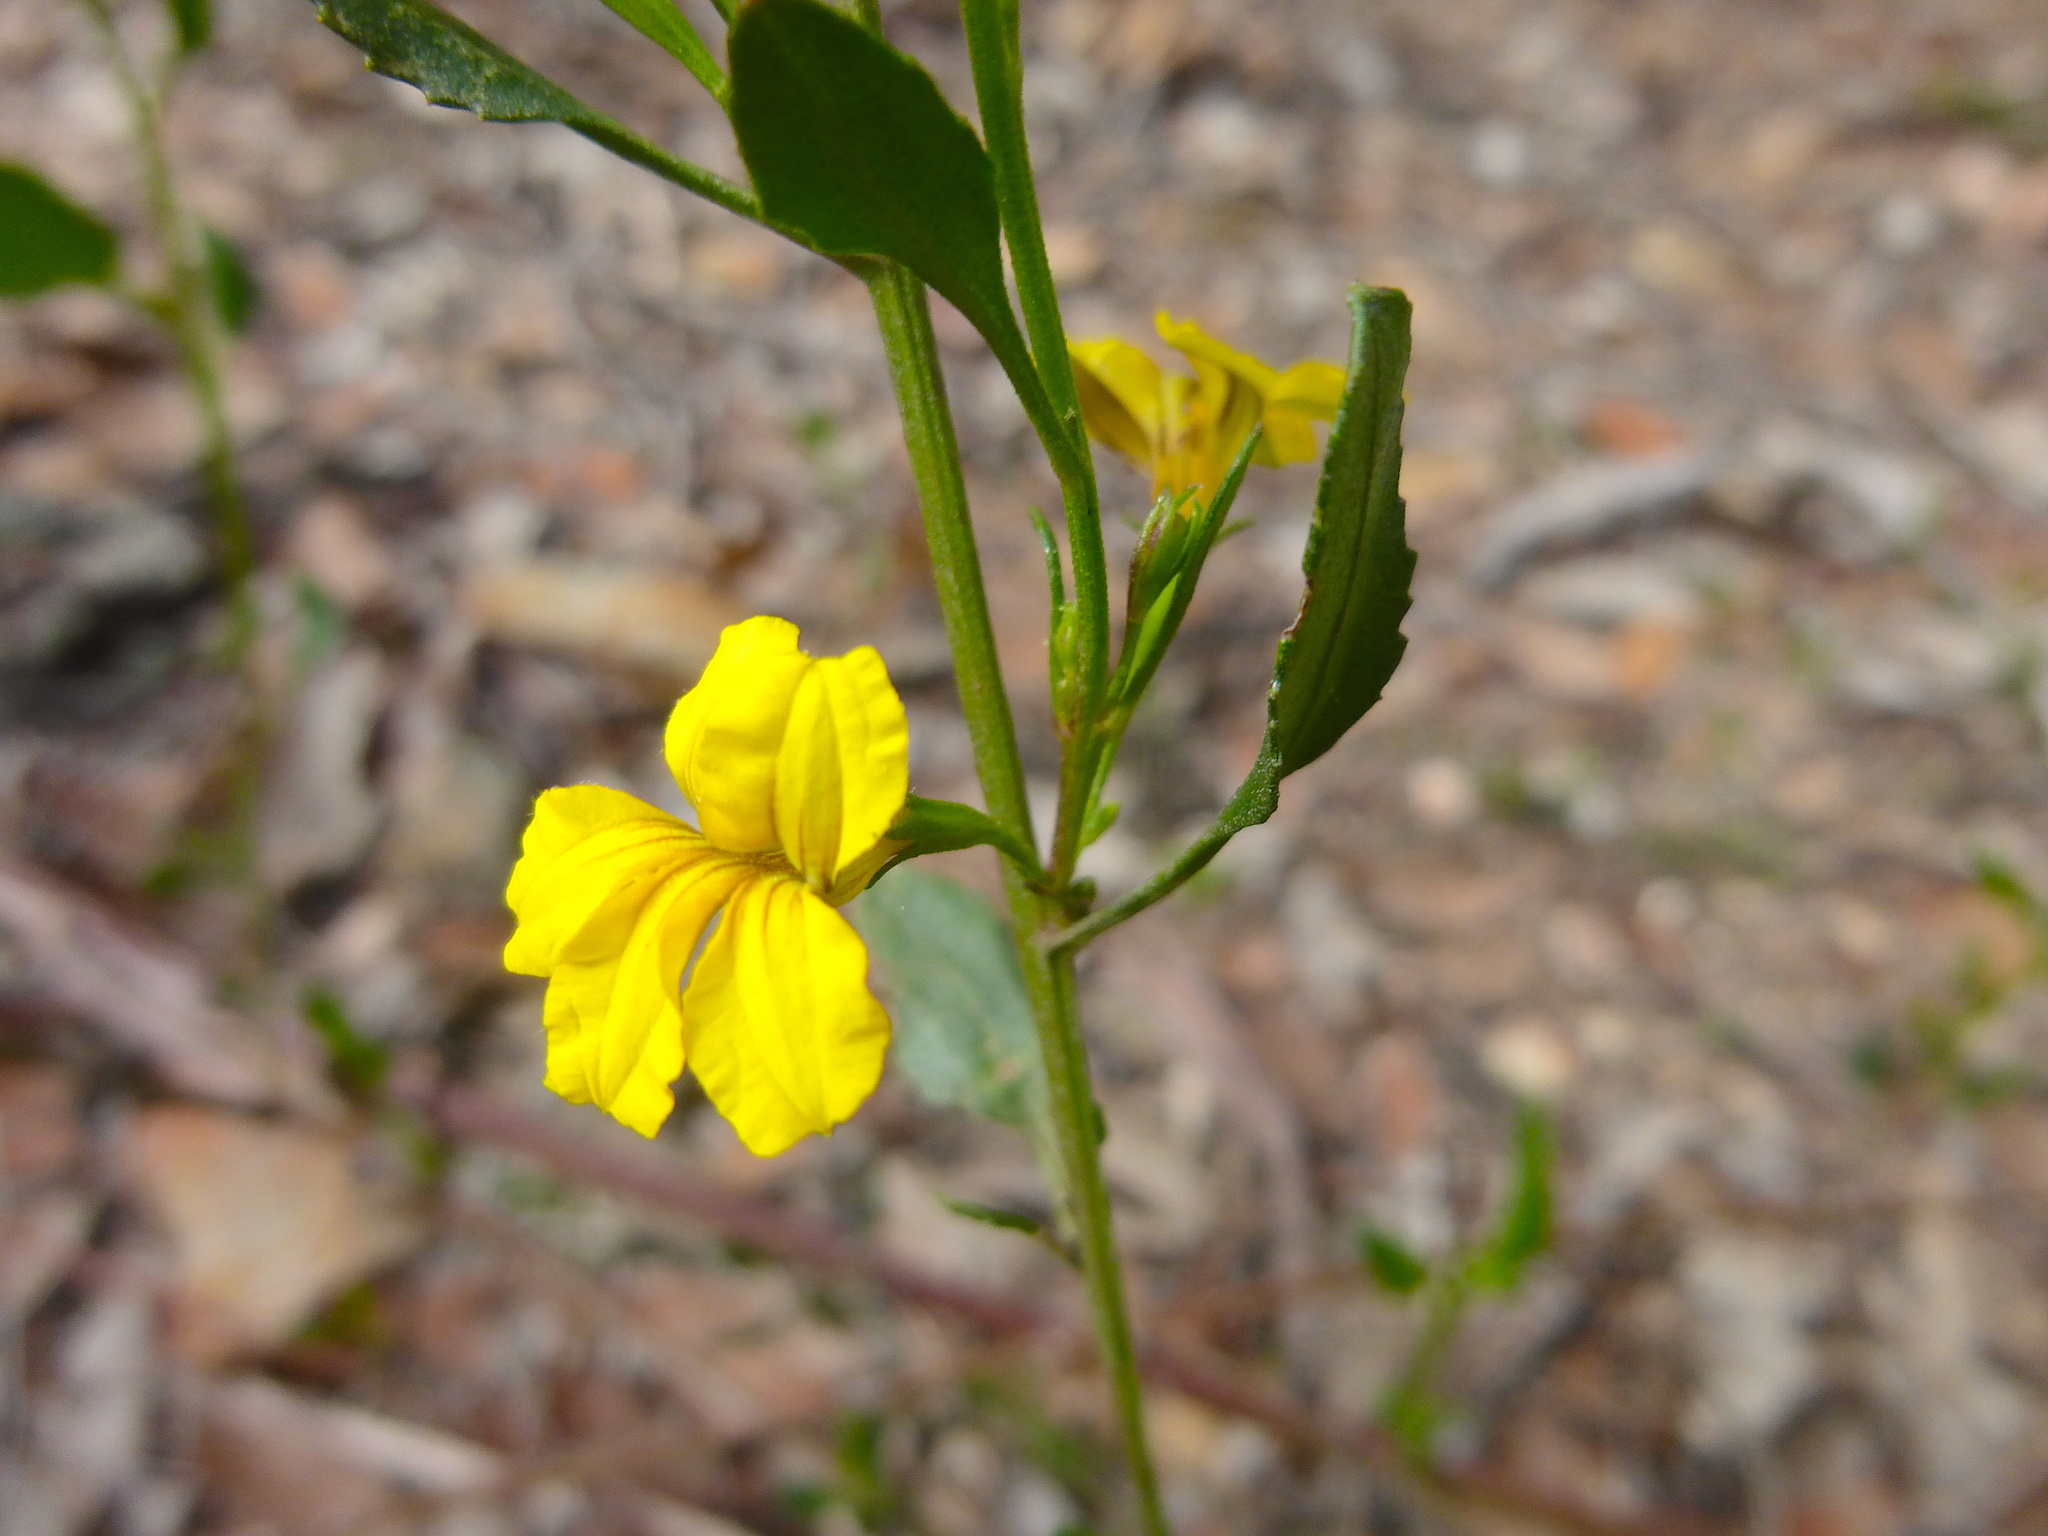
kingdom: Plantae
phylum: Tracheophyta
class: Magnoliopsida
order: Asterales
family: Goodeniaceae
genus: Goodenia
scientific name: Goodenia ovata
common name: Hop goodenia
